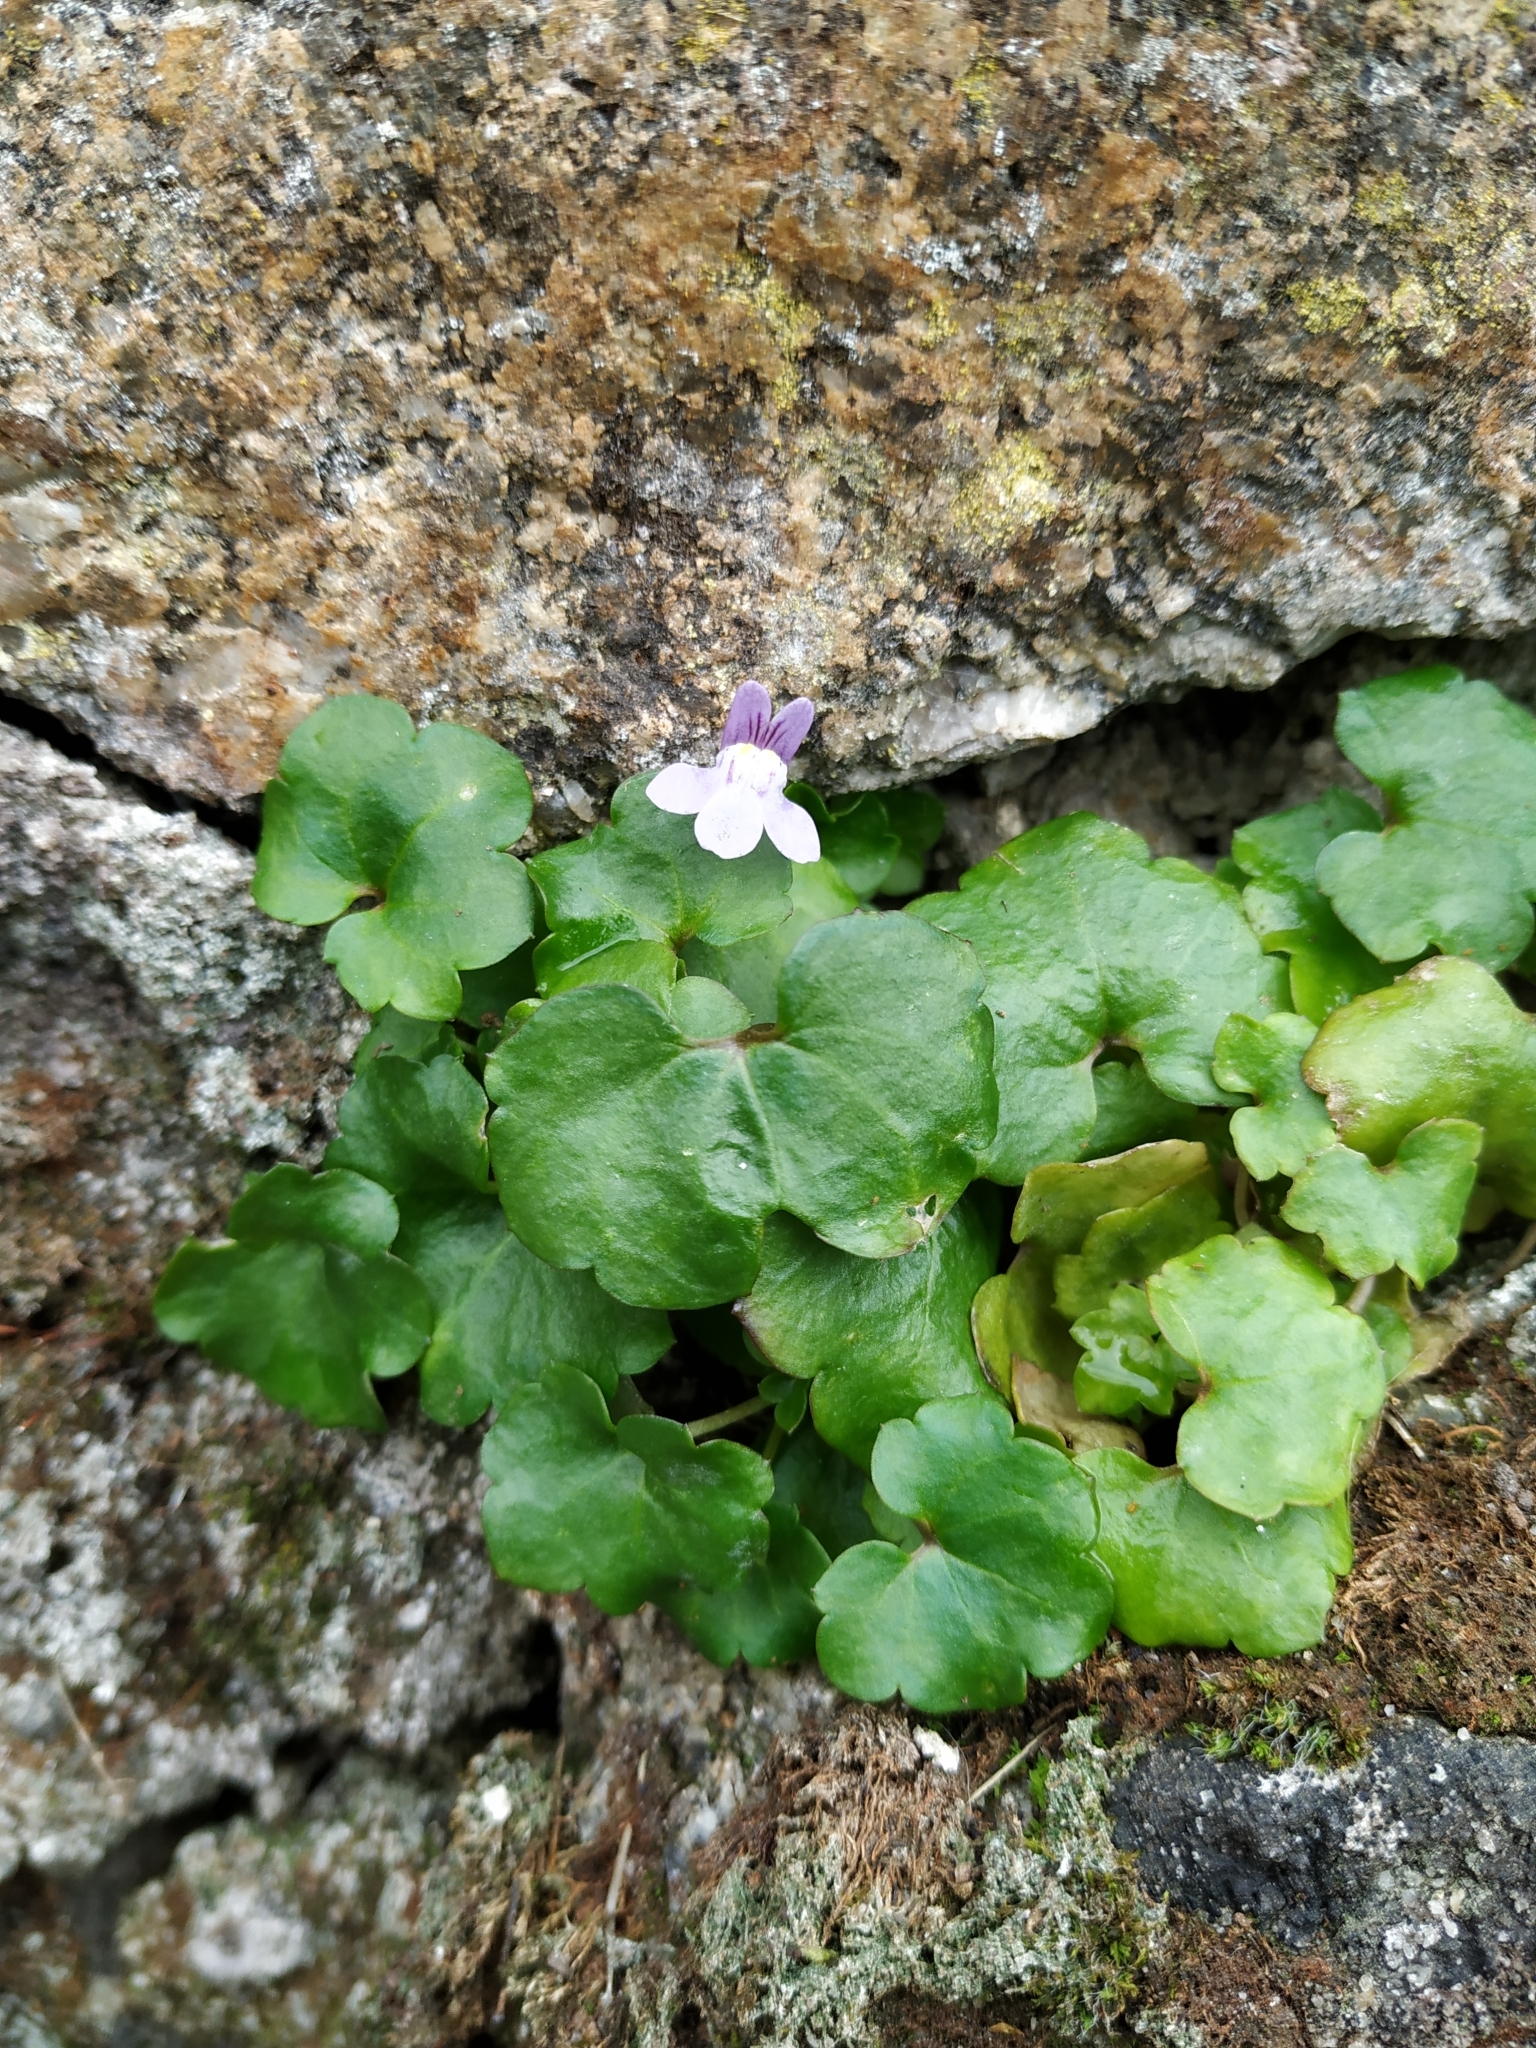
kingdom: Plantae
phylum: Tracheophyta
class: Magnoliopsida
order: Lamiales
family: Plantaginaceae
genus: Cymbalaria
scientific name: Cymbalaria muralis
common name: Ivy-leaved toadflax
